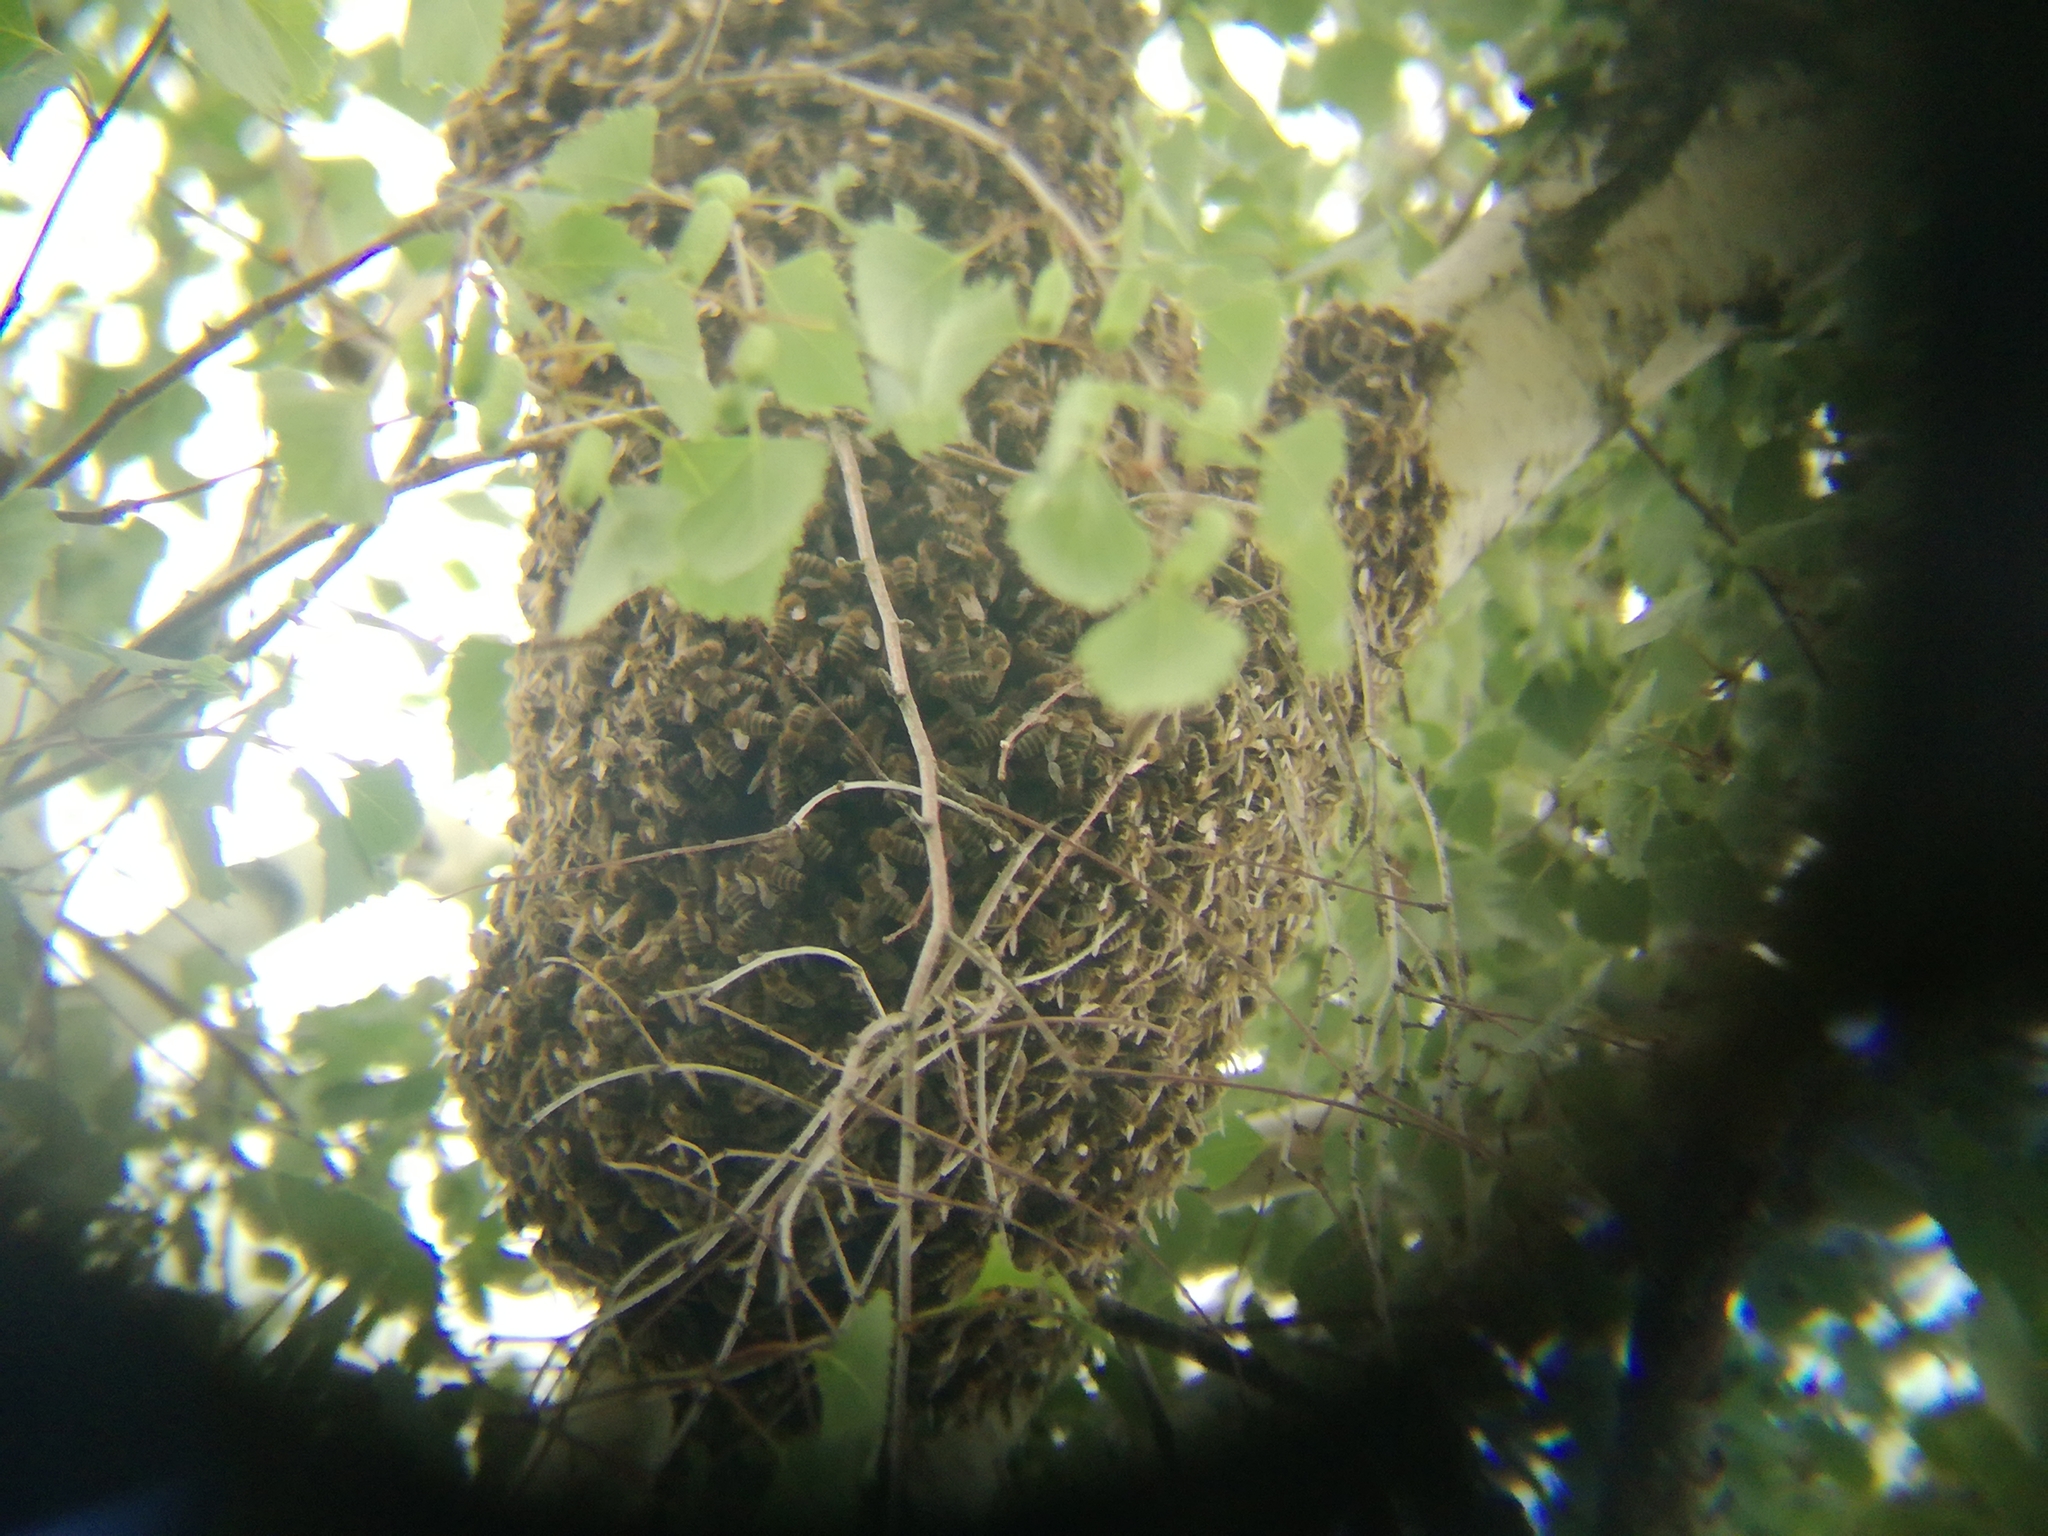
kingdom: Animalia
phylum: Arthropoda
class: Insecta
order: Hymenoptera
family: Apidae
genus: Apis
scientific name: Apis mellifera
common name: Honey bee
